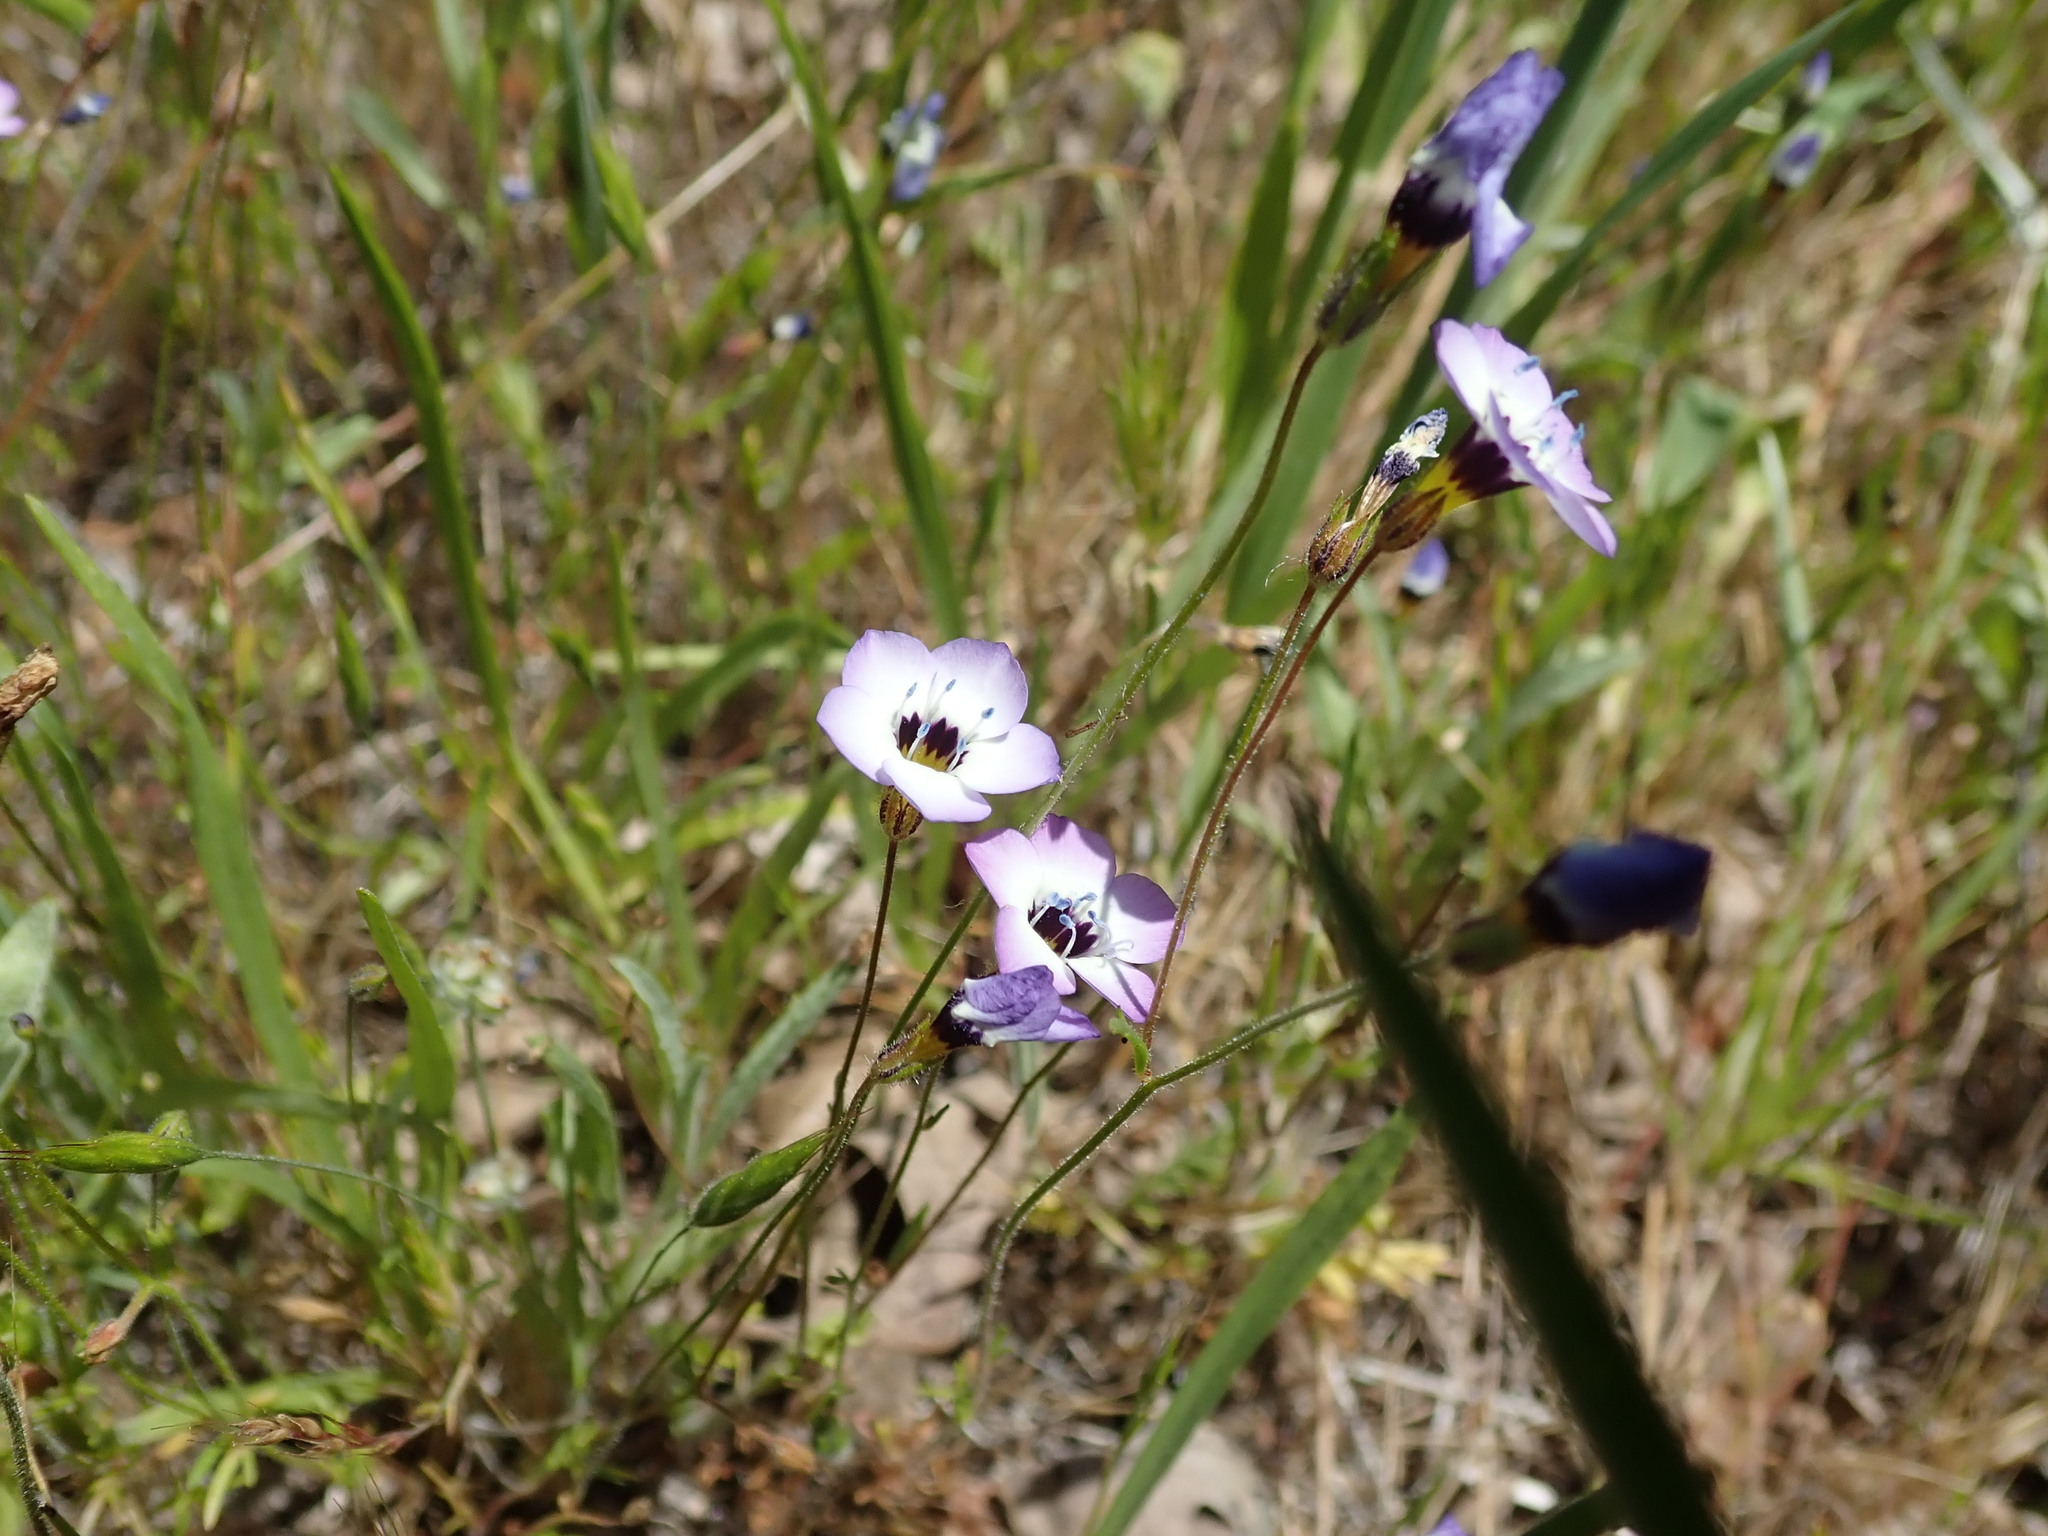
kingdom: Plantae
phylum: Tracheophyta
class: Magnoliopsida
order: Ericales
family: Polemoniaceae
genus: Gilia
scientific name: Gilia tricolor
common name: Bird's-eyes
